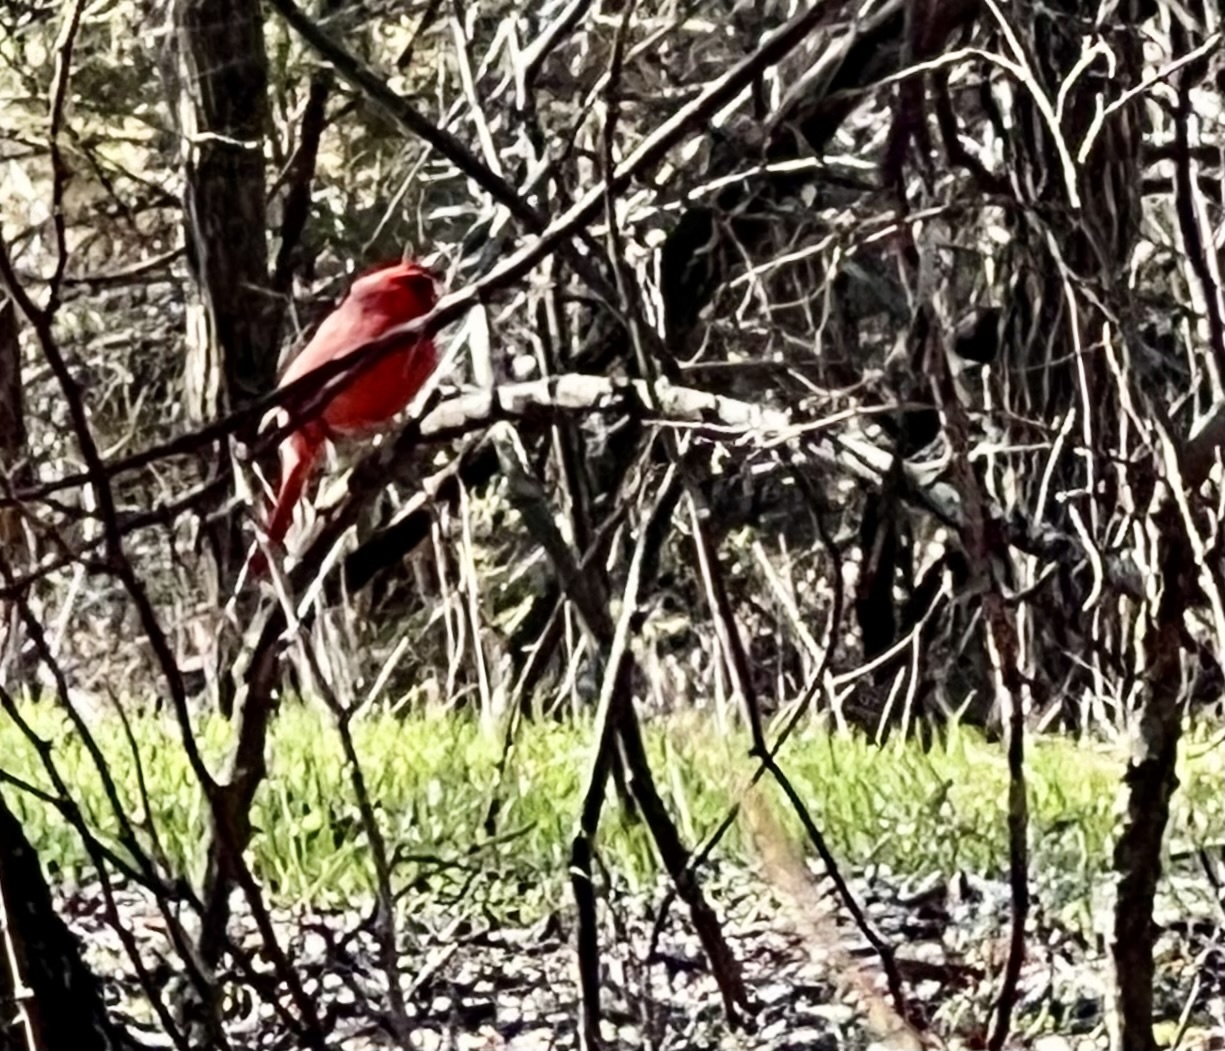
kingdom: Animalia
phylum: Chordata
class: Aves
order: Passeriformes
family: Cardinalidae
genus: Cardinalis
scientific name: Cardinalis cardinalis
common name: Northern cardinal
